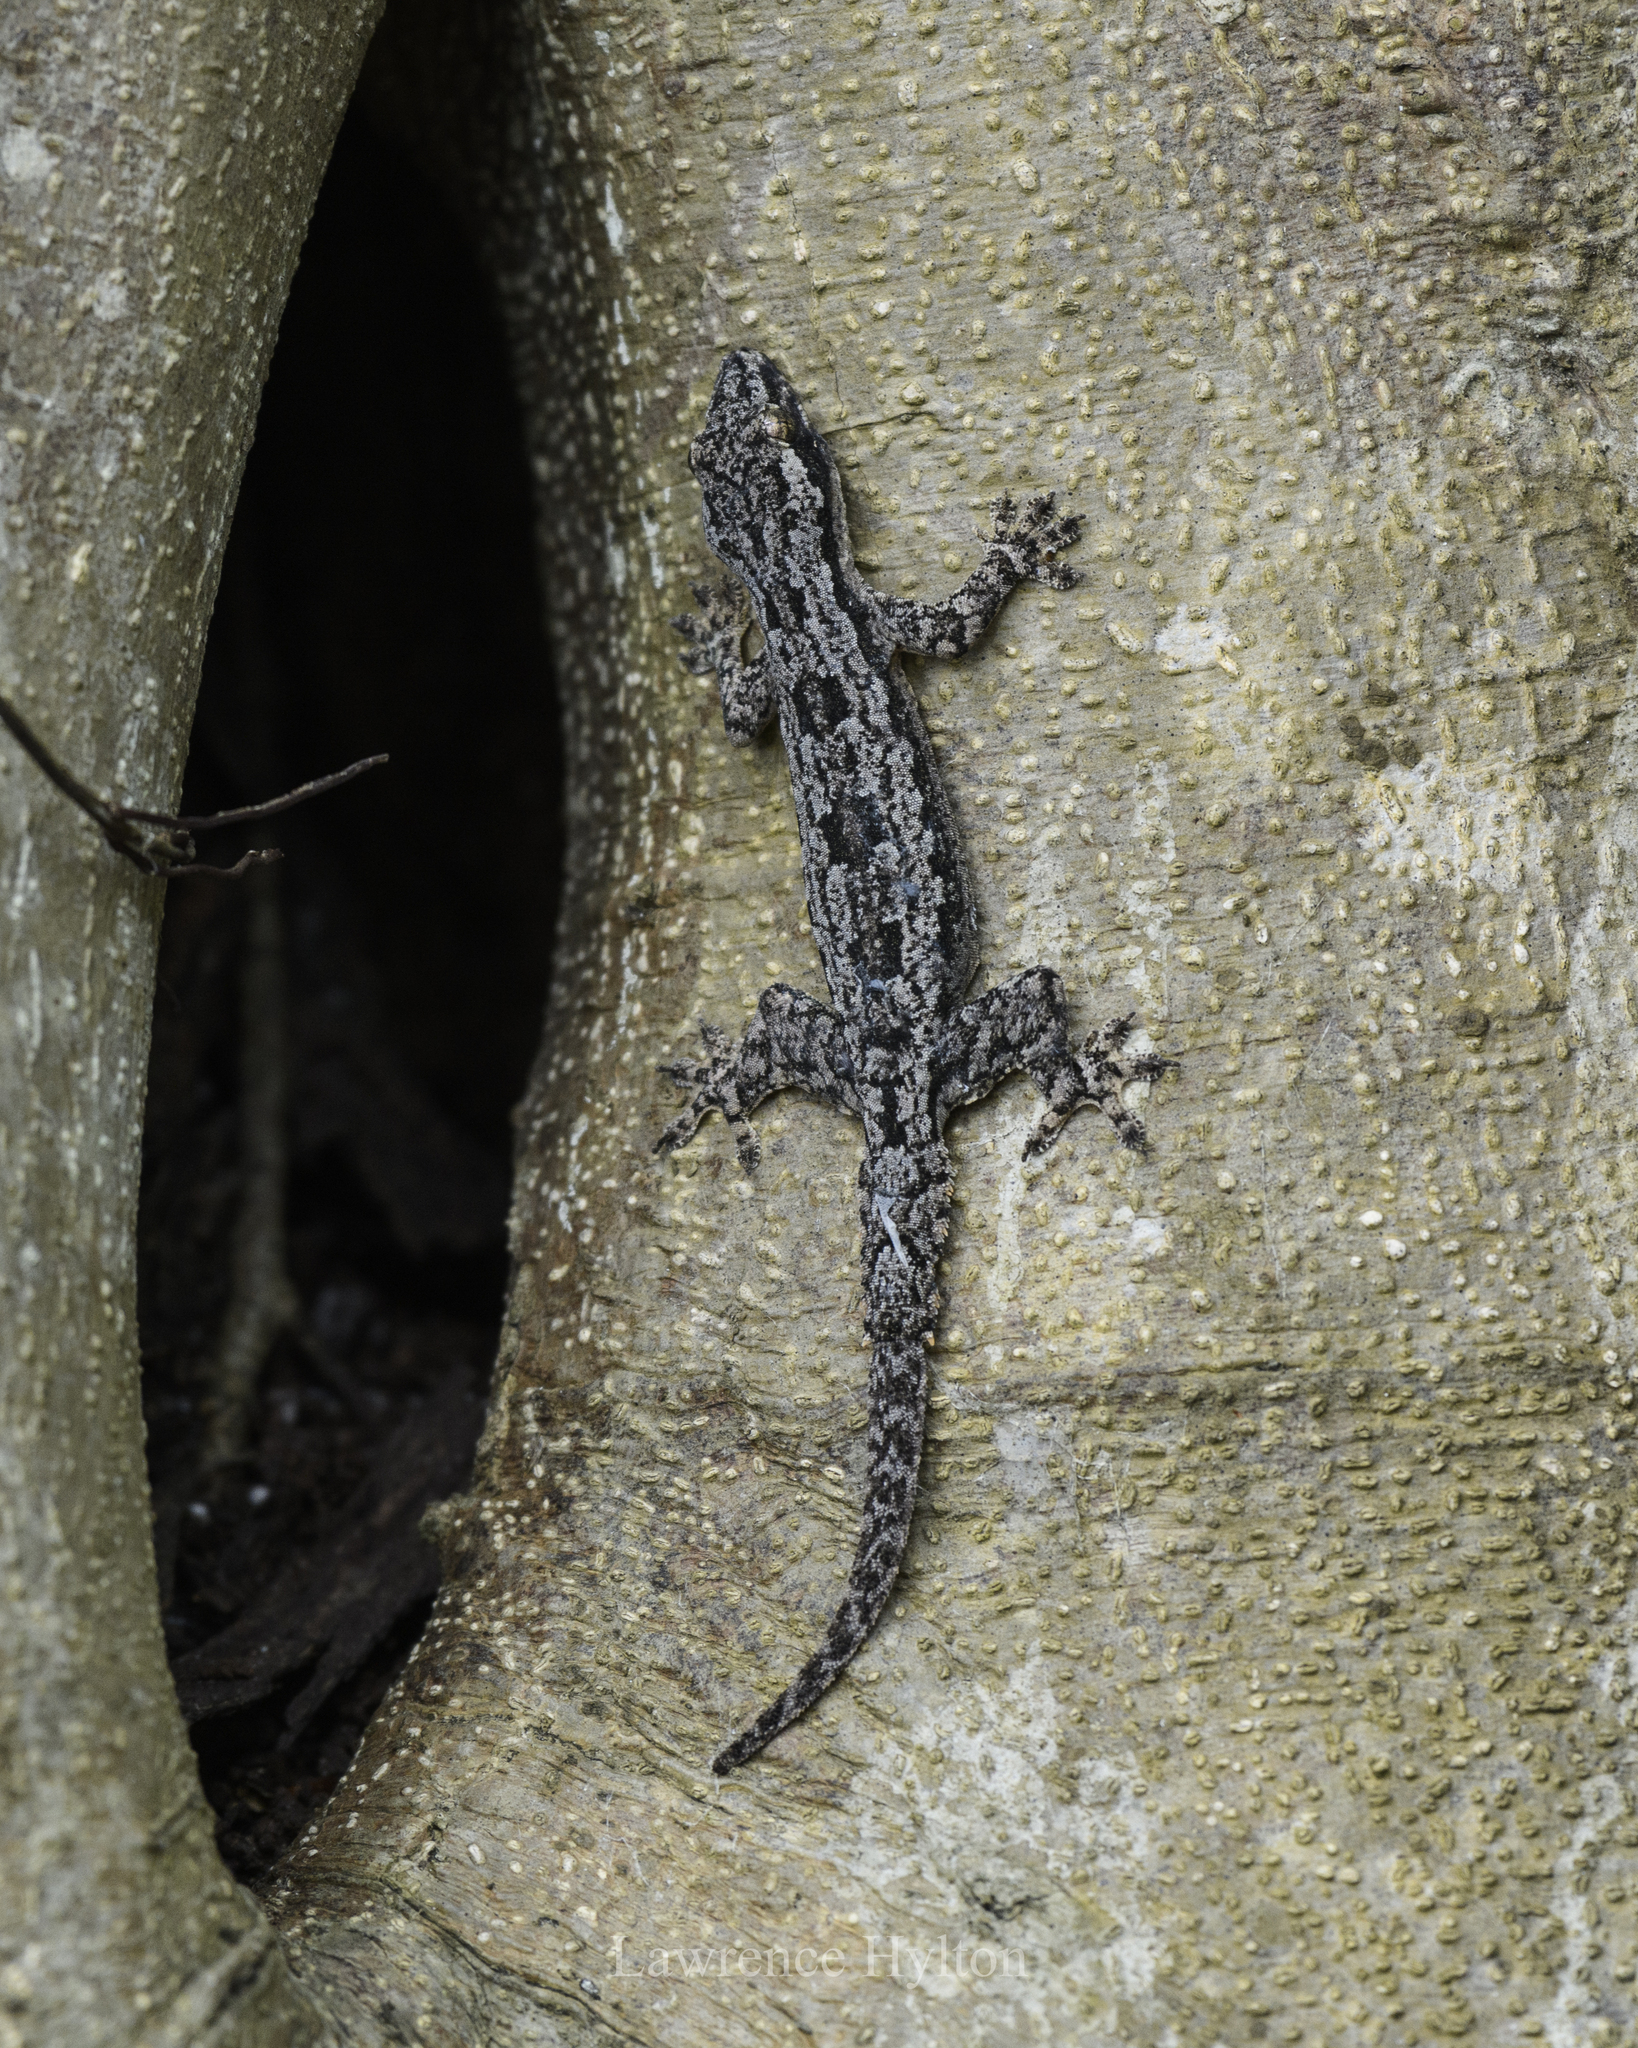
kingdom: Animalia
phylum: Chordata
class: Squamata
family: Gekkonidae
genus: Hemidactylus
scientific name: Hemidactylus platyurus
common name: Flat-tailed house gecko
